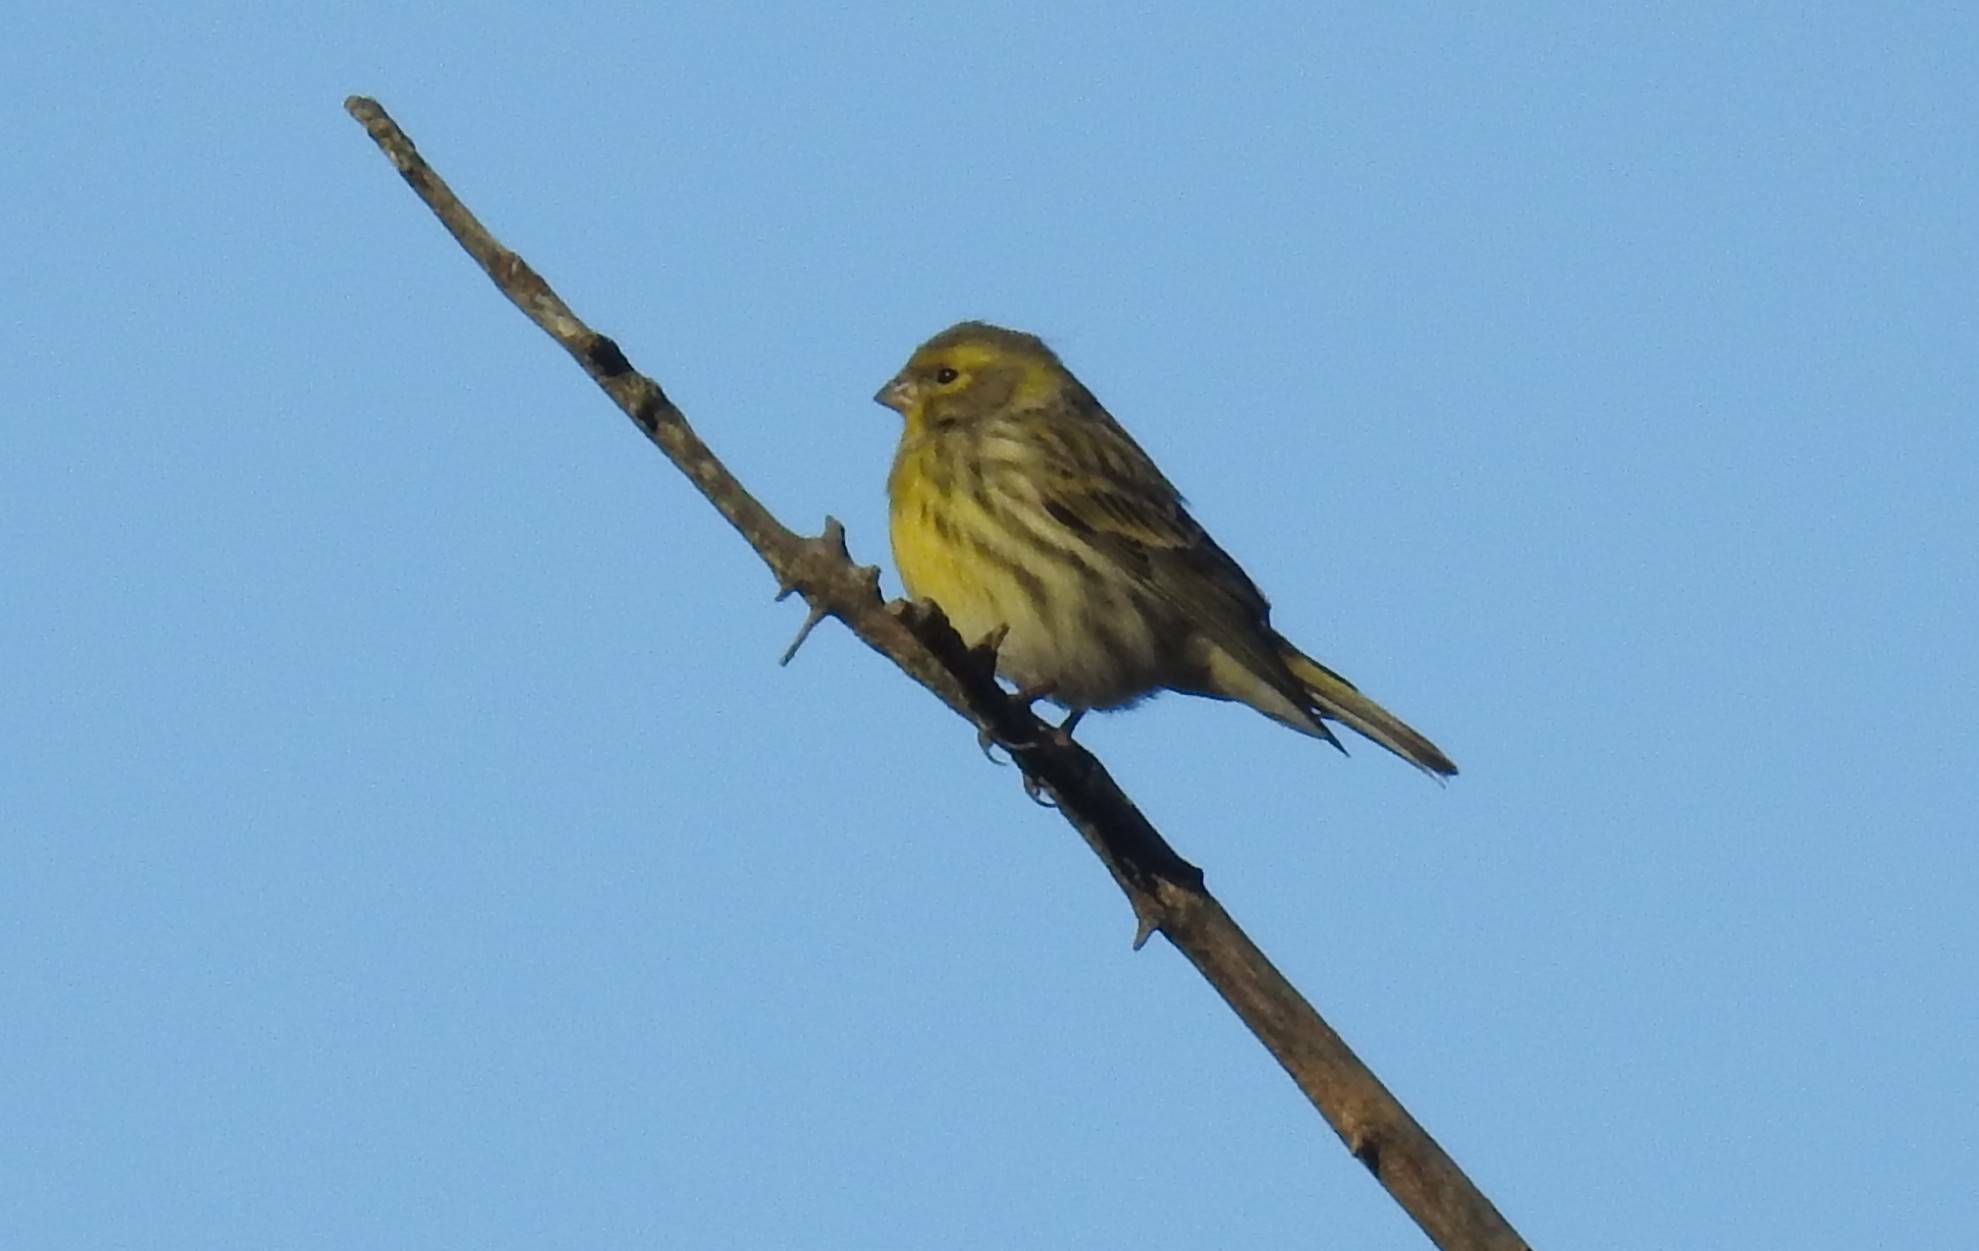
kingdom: Animalia
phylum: Chordata
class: Aves
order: Passeriformes
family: Fringillidae
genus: Serinus
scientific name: Serinus serinus
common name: European serin
